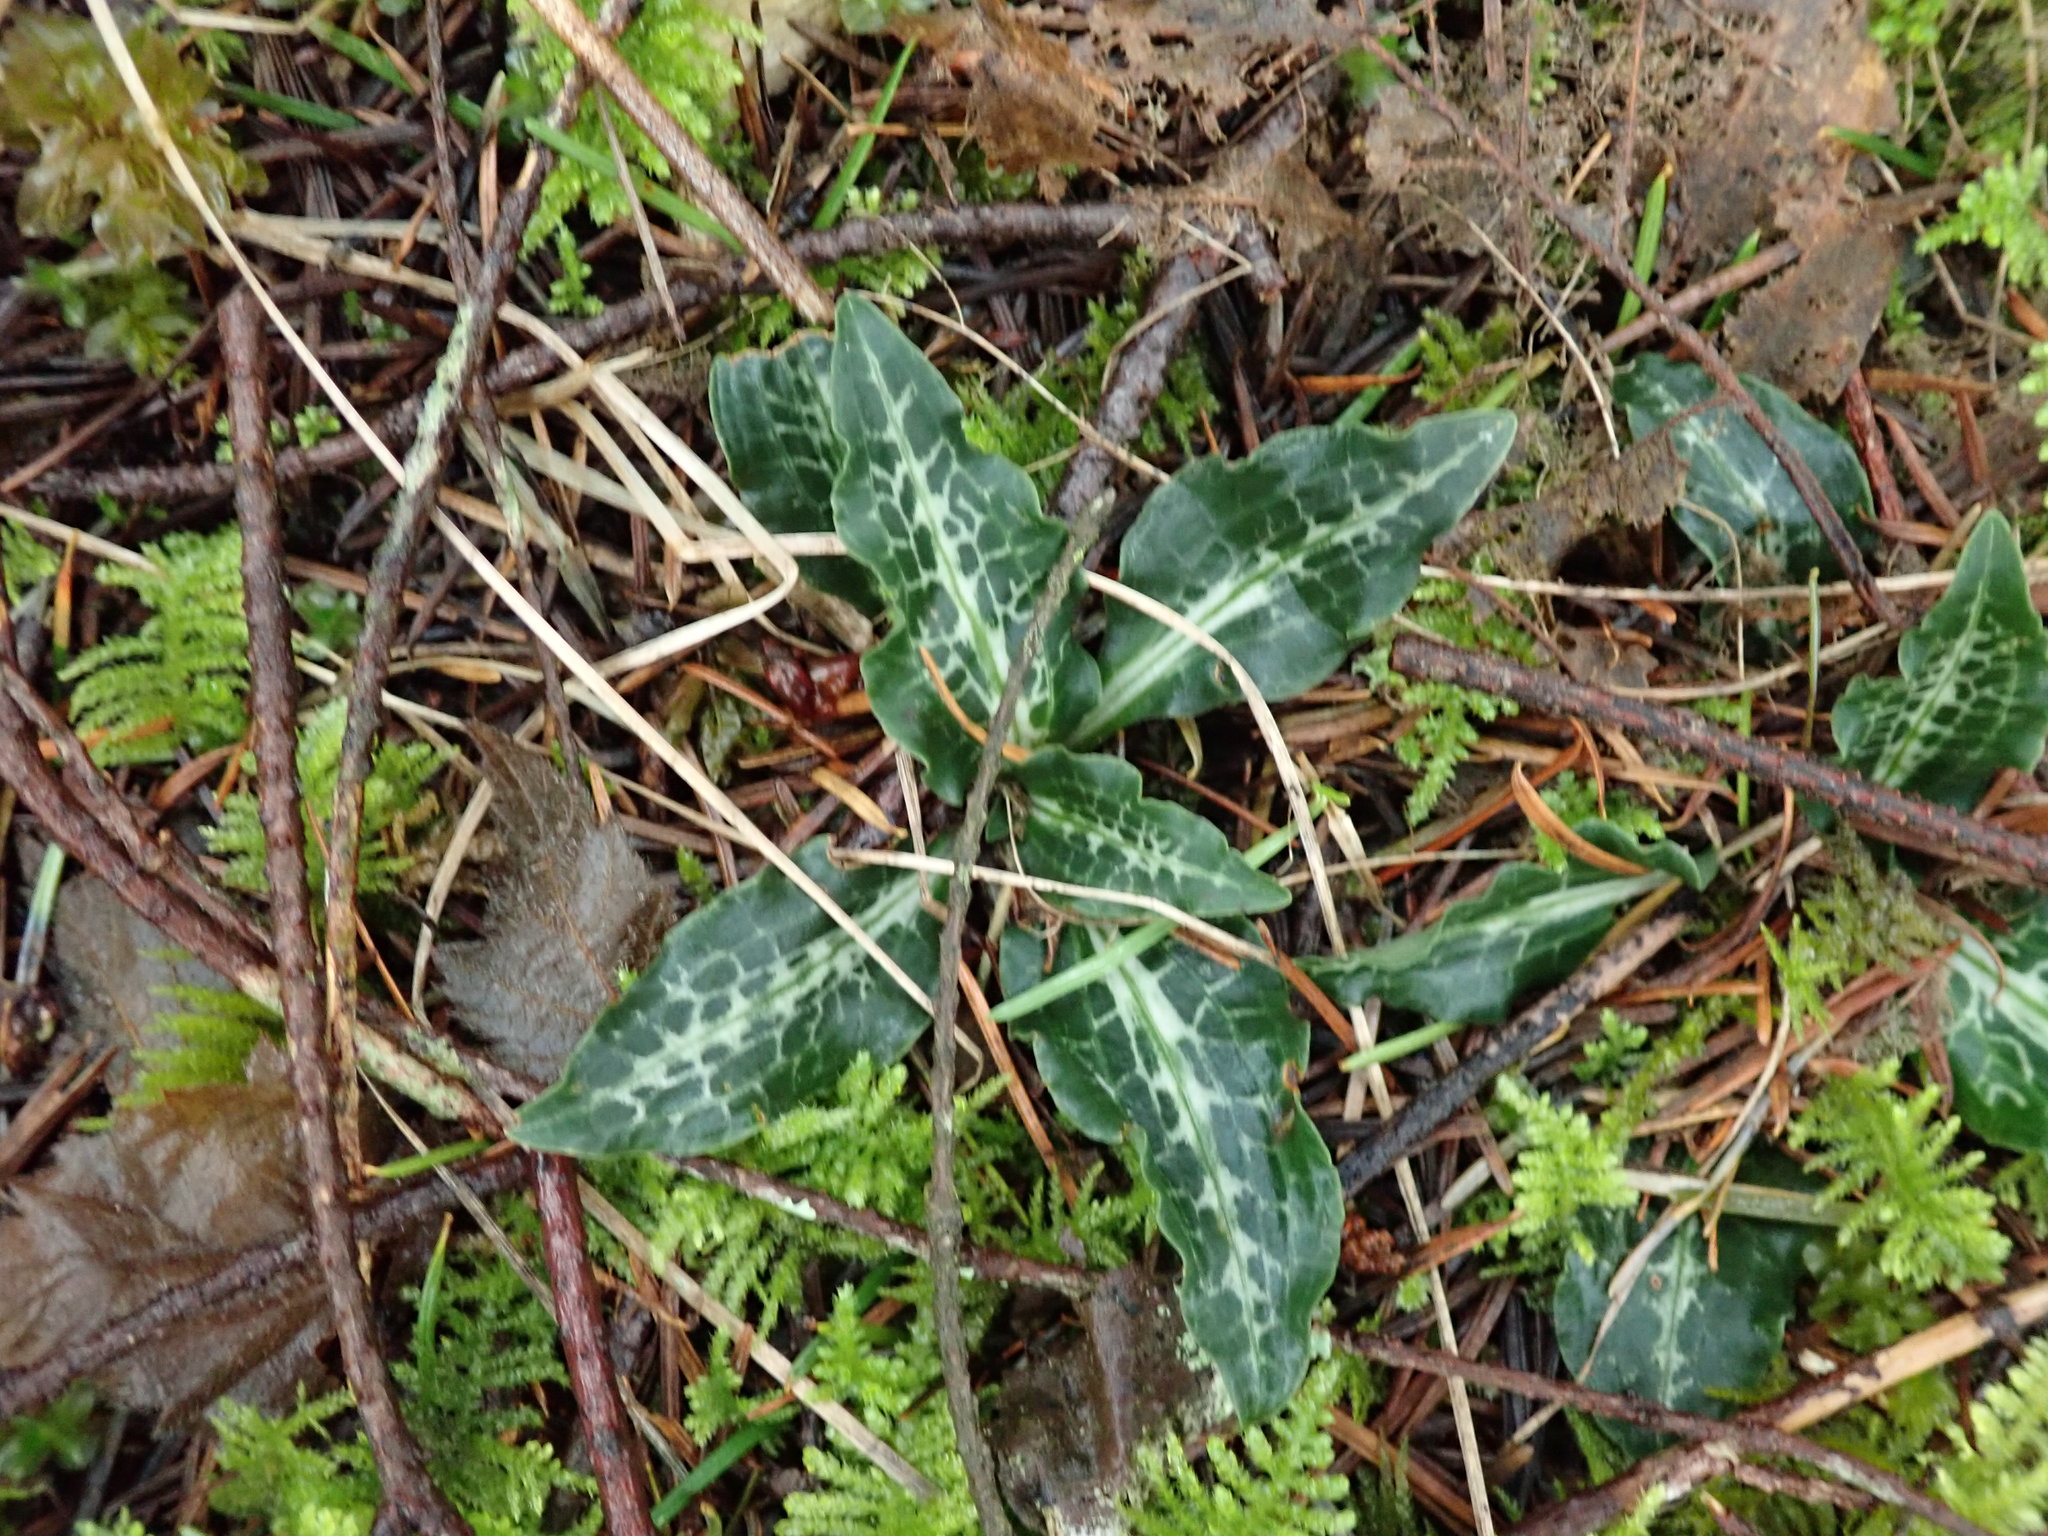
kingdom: Plantae
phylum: Tracheophyta
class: Liliopsida
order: Asparagales
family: Orchidaceae
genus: Goodyera
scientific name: Goodyera oblongifolia
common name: Giant rattlesnake-plantain
